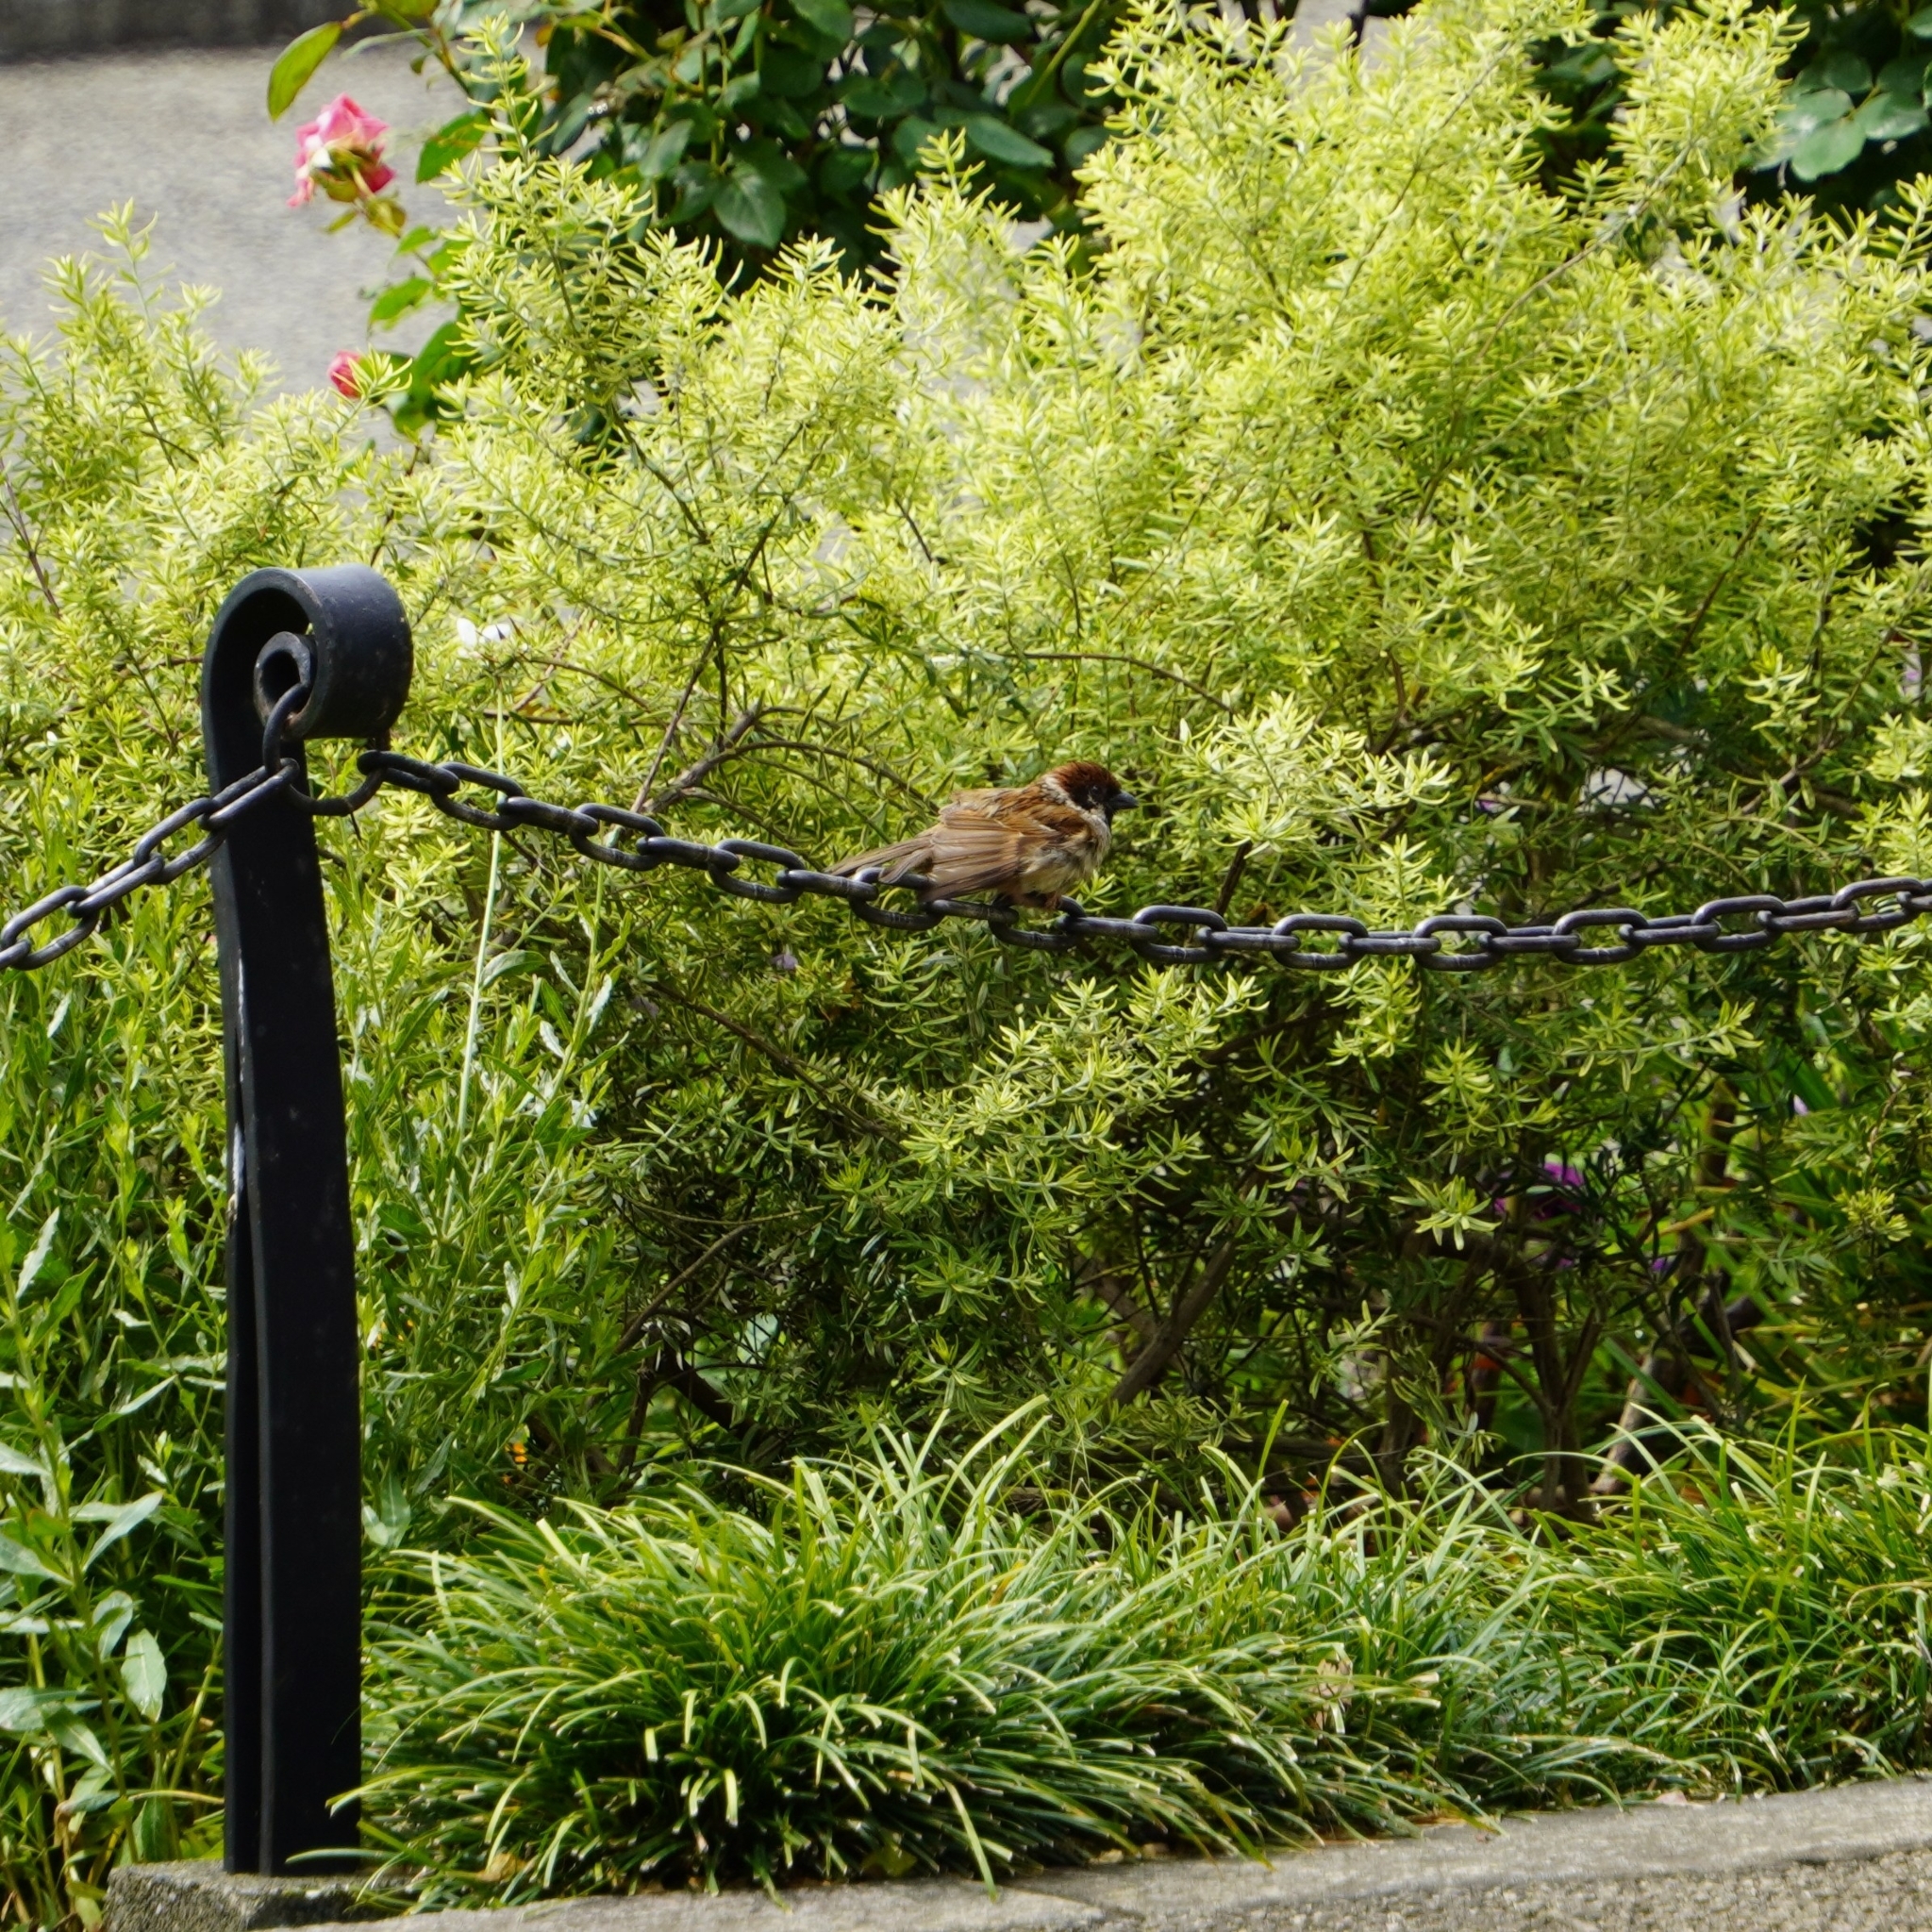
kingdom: Animalia
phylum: Chordata
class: Aves
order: Passeriformes
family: Passeridae
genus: Passer
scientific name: Passer montanus
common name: Eurasian tree sparrow
